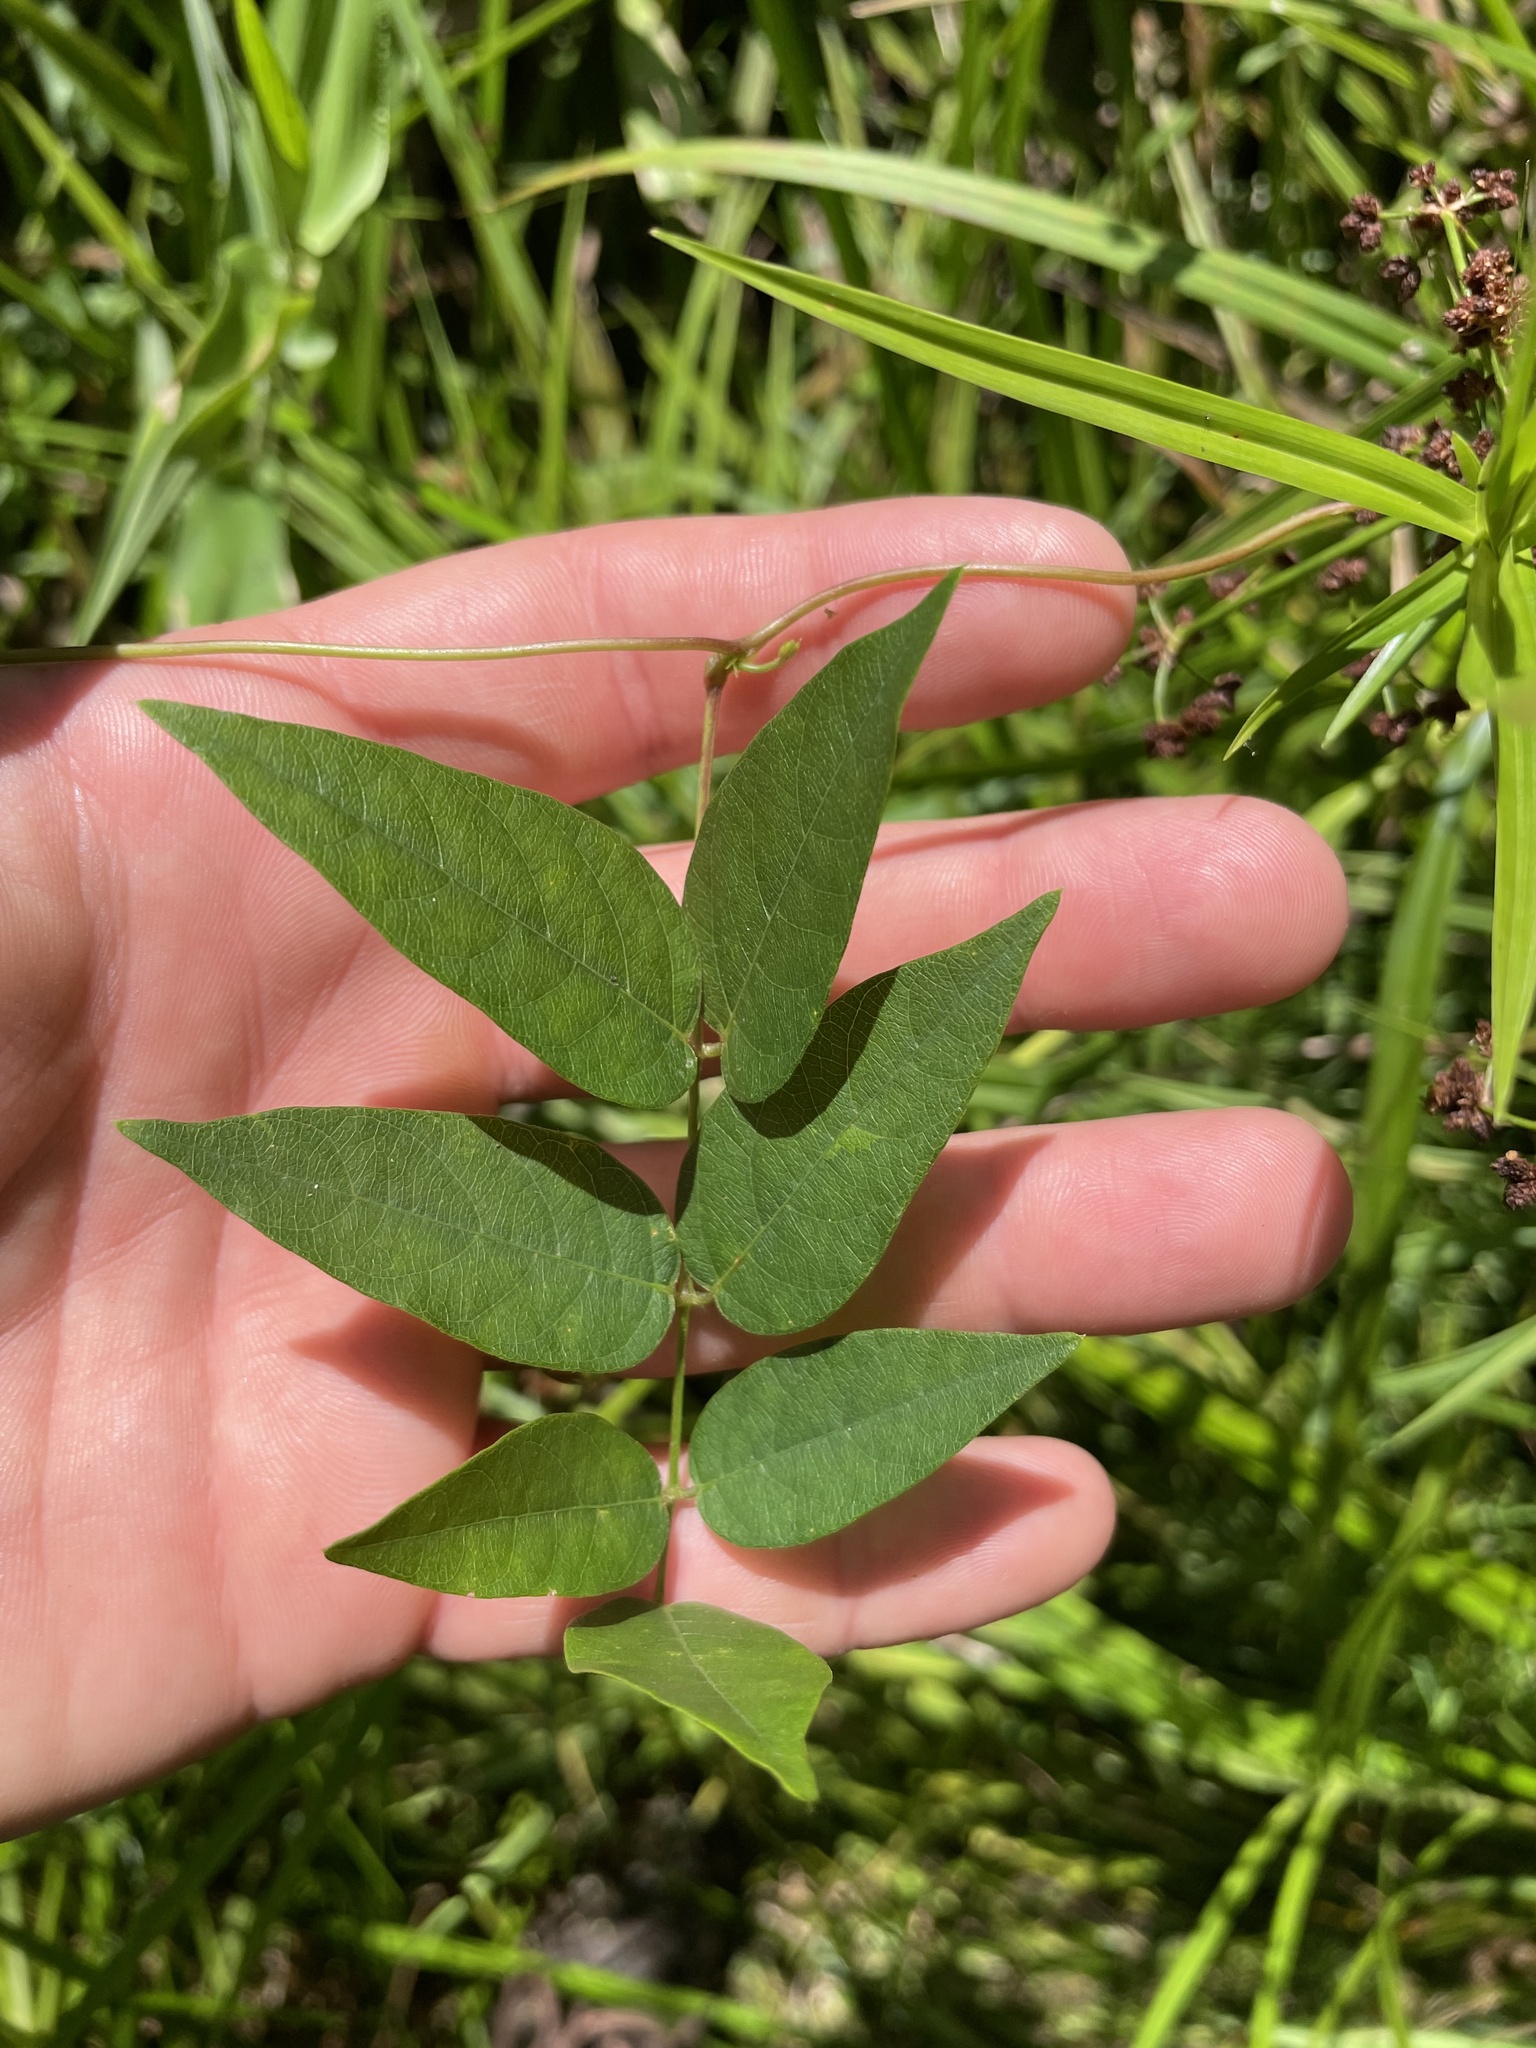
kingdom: Plantae
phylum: Tracheophyta
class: Magnoliopsida
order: Fabales
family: Fabaceae
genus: Apios
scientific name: Apios americana
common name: American potato-bean
